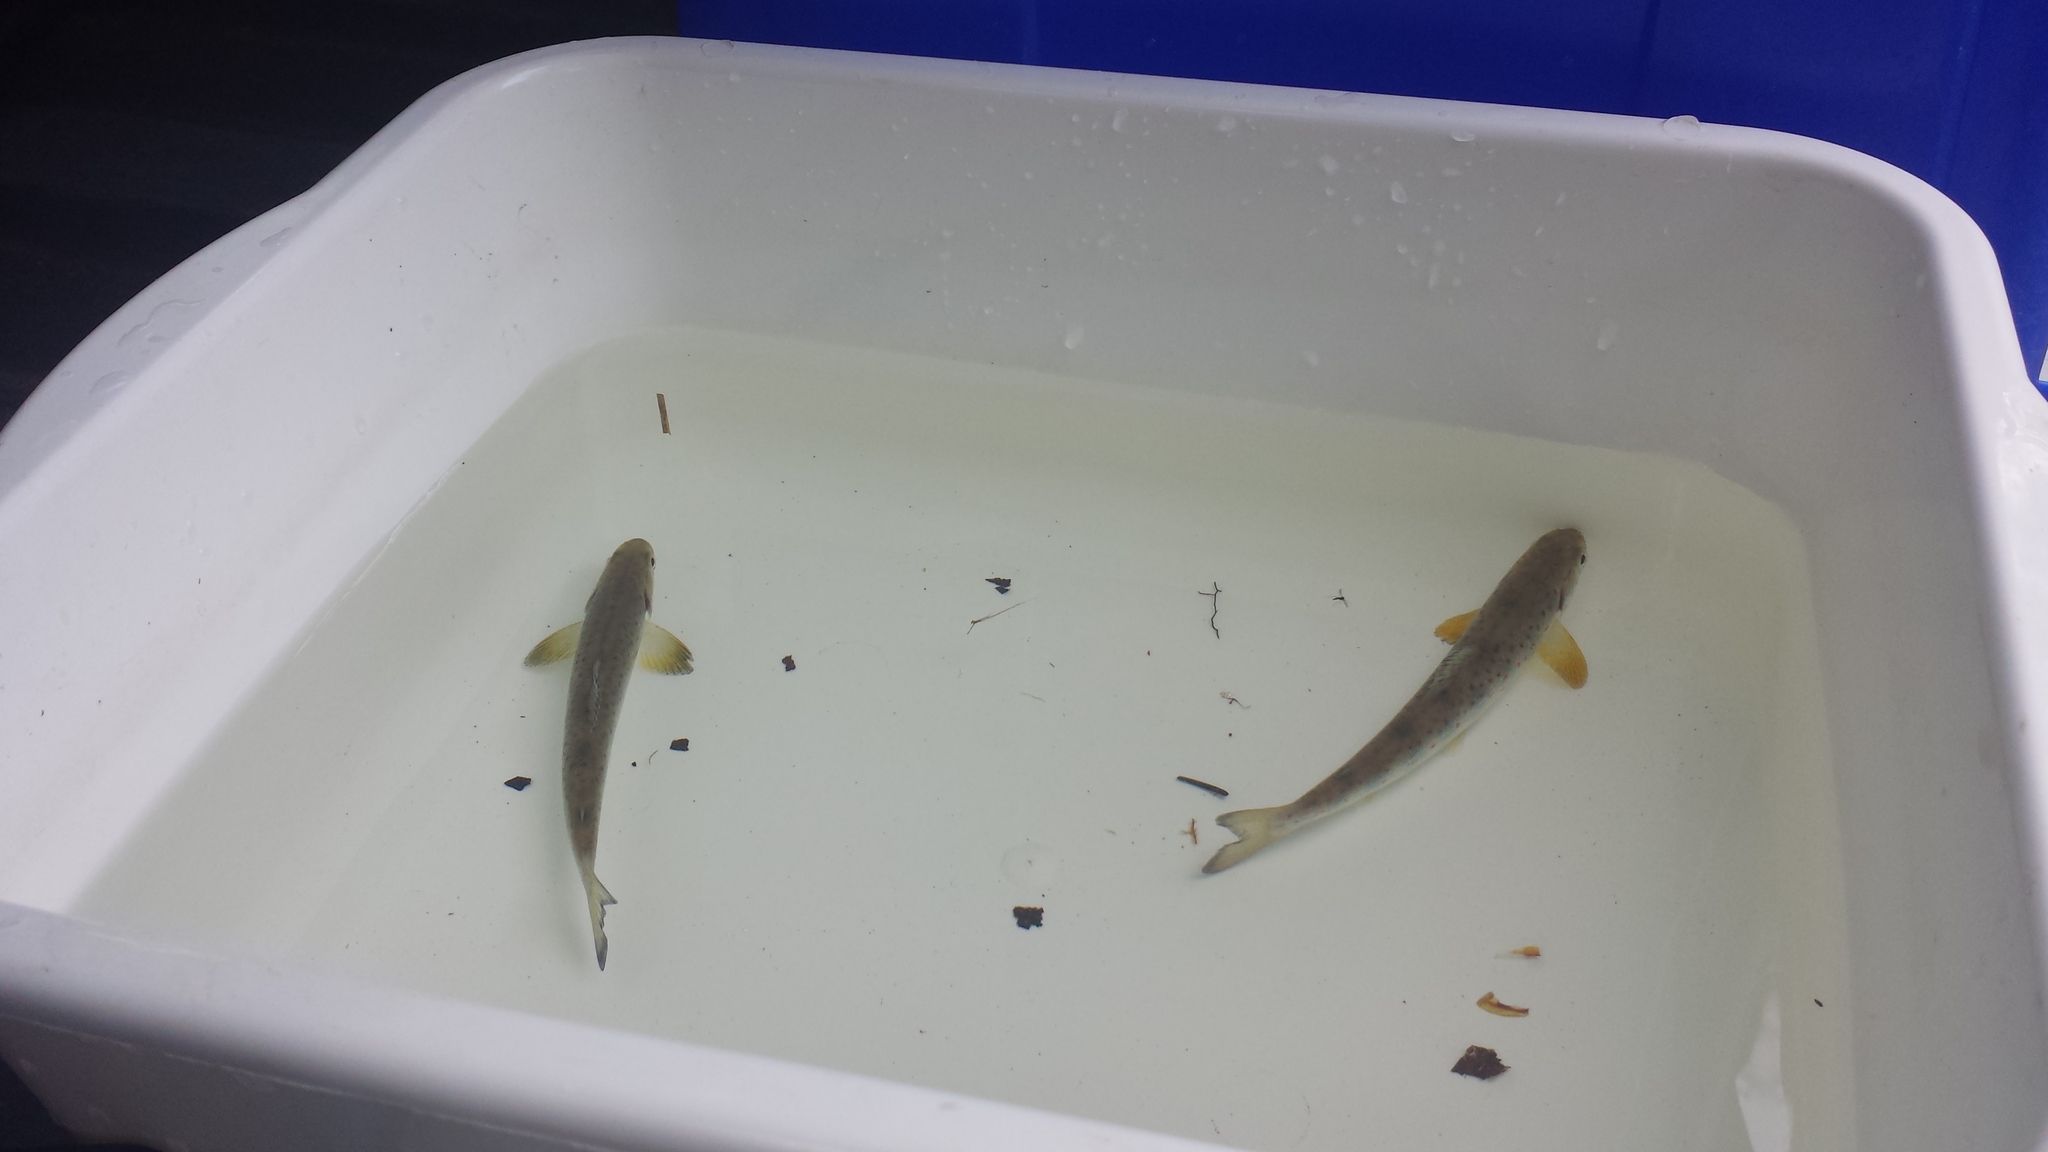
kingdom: Animalia
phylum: Chordata
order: Salmoniformes
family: Salmonidae
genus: Salmo
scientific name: Salmo salar
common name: Atlantic salmon
